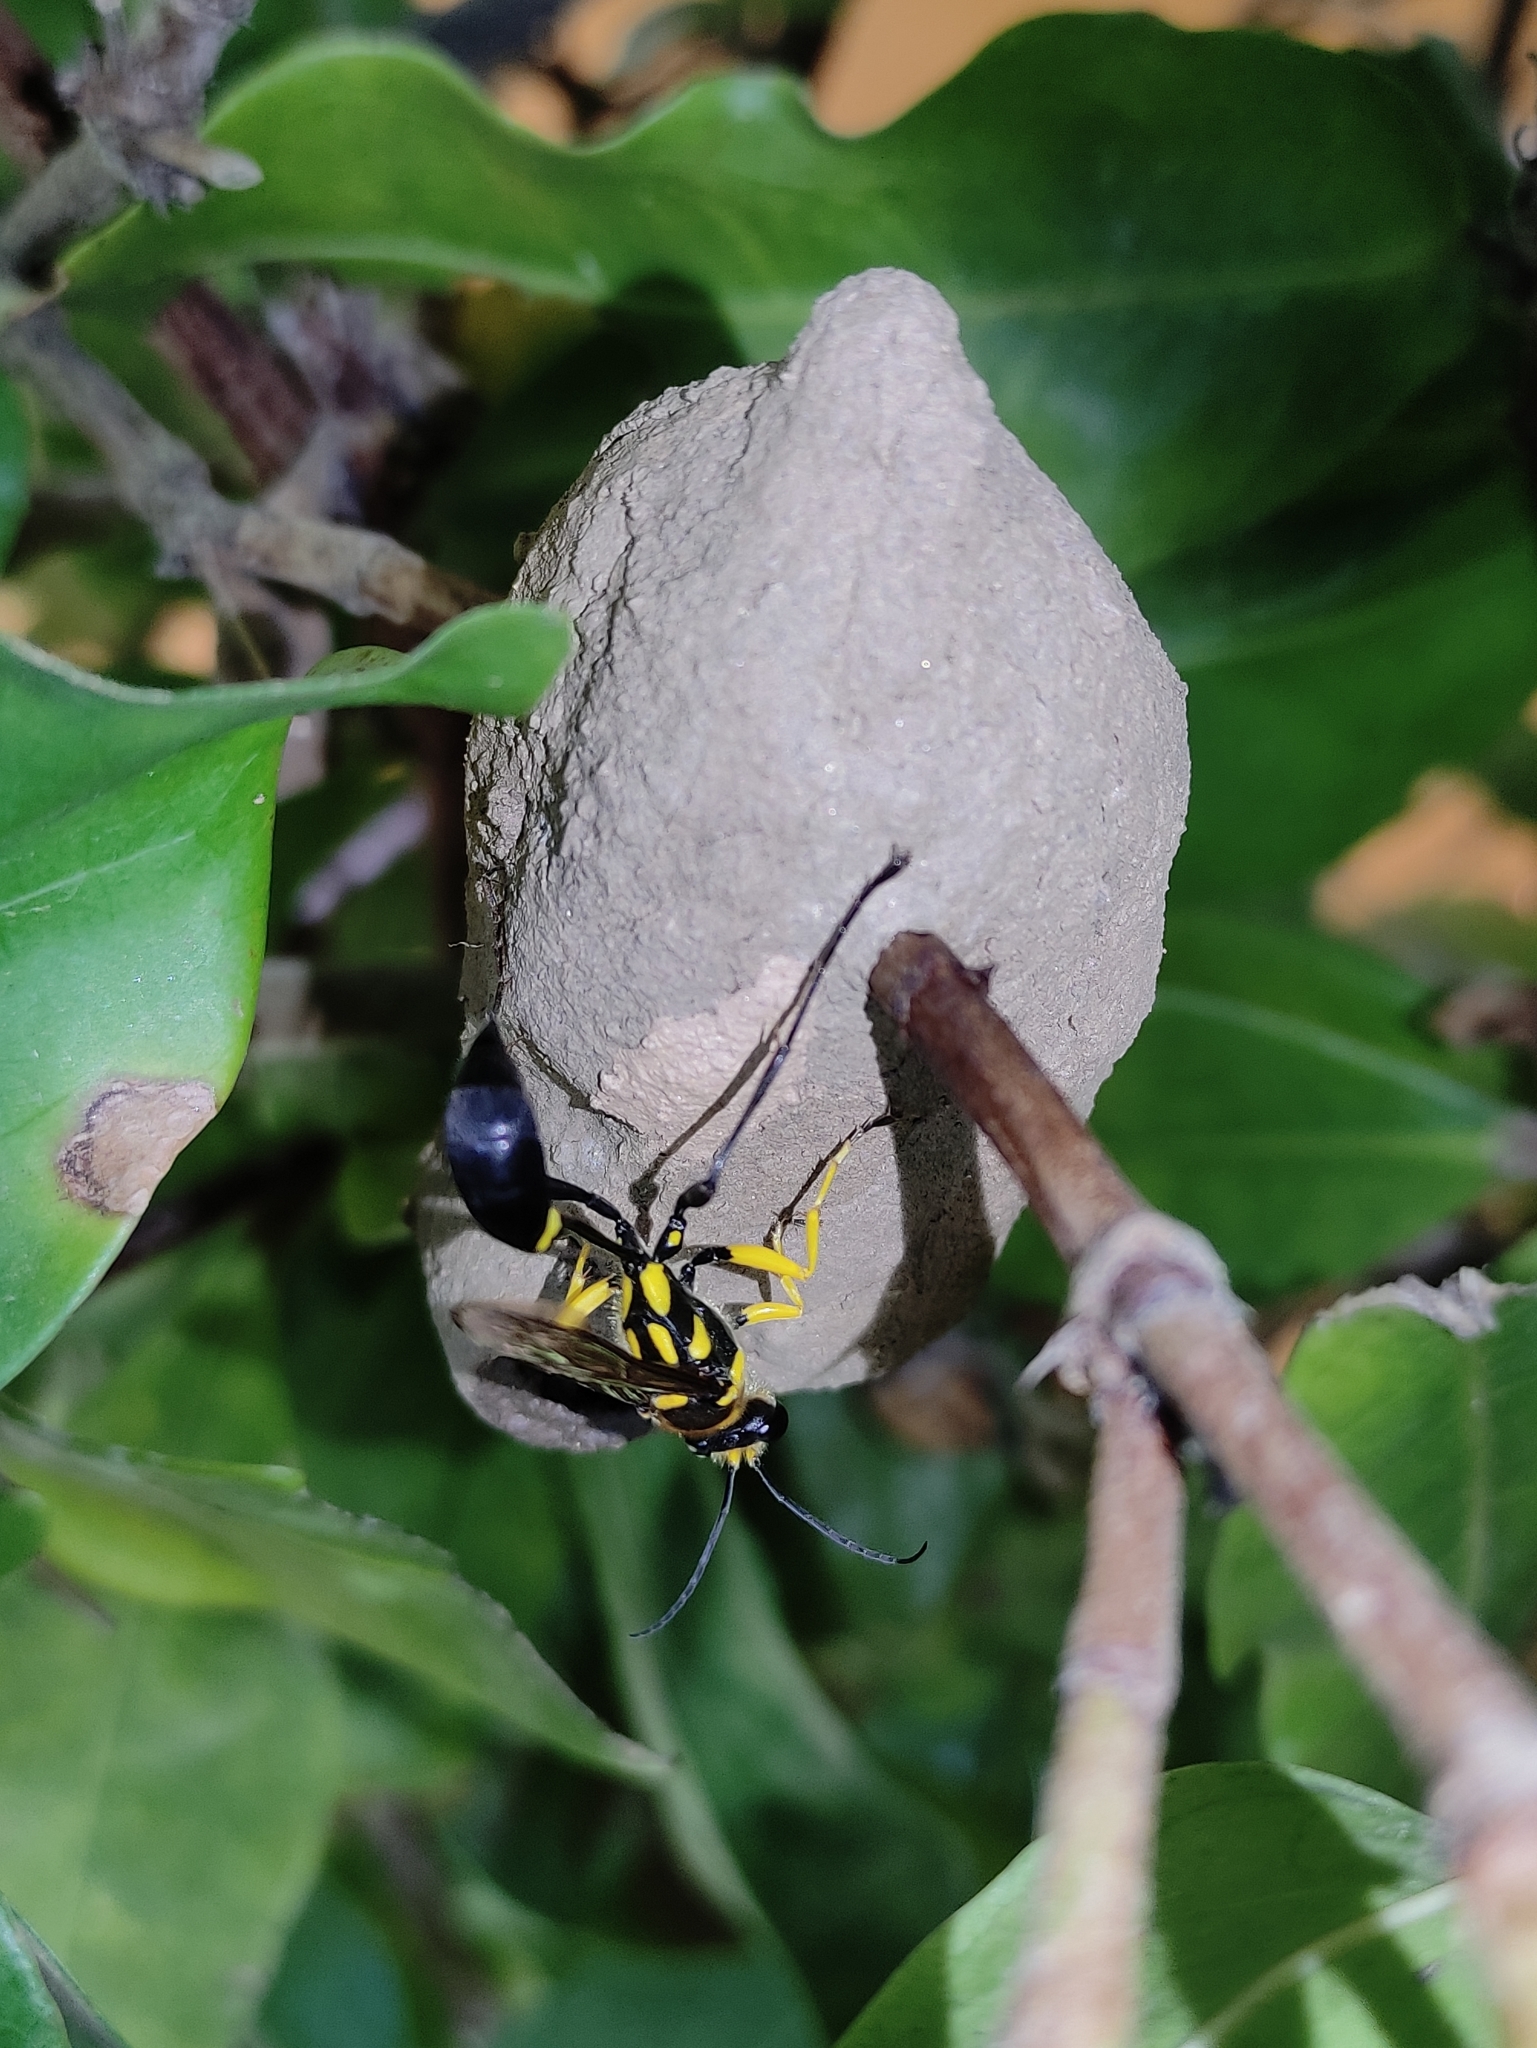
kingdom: Animalia
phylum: Arthropoda
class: Insecta
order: Hymenoptera
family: Sphecidae
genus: Sceliphron
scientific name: Sceliphron fistularium
